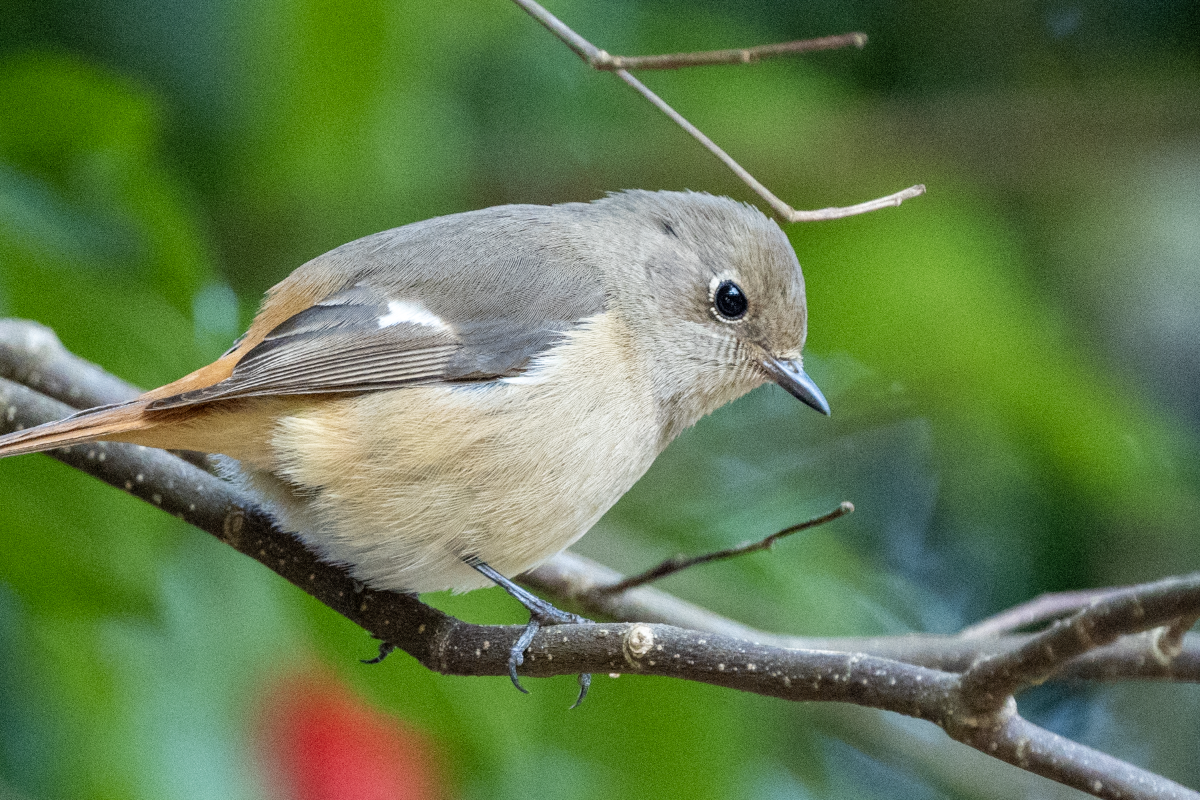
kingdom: Animalia
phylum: Chordata
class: Aves
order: Passeriformes
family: Muscicapidae
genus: Phoenicurus
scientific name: Phoenicurus auroreus
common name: Daurian redstart
